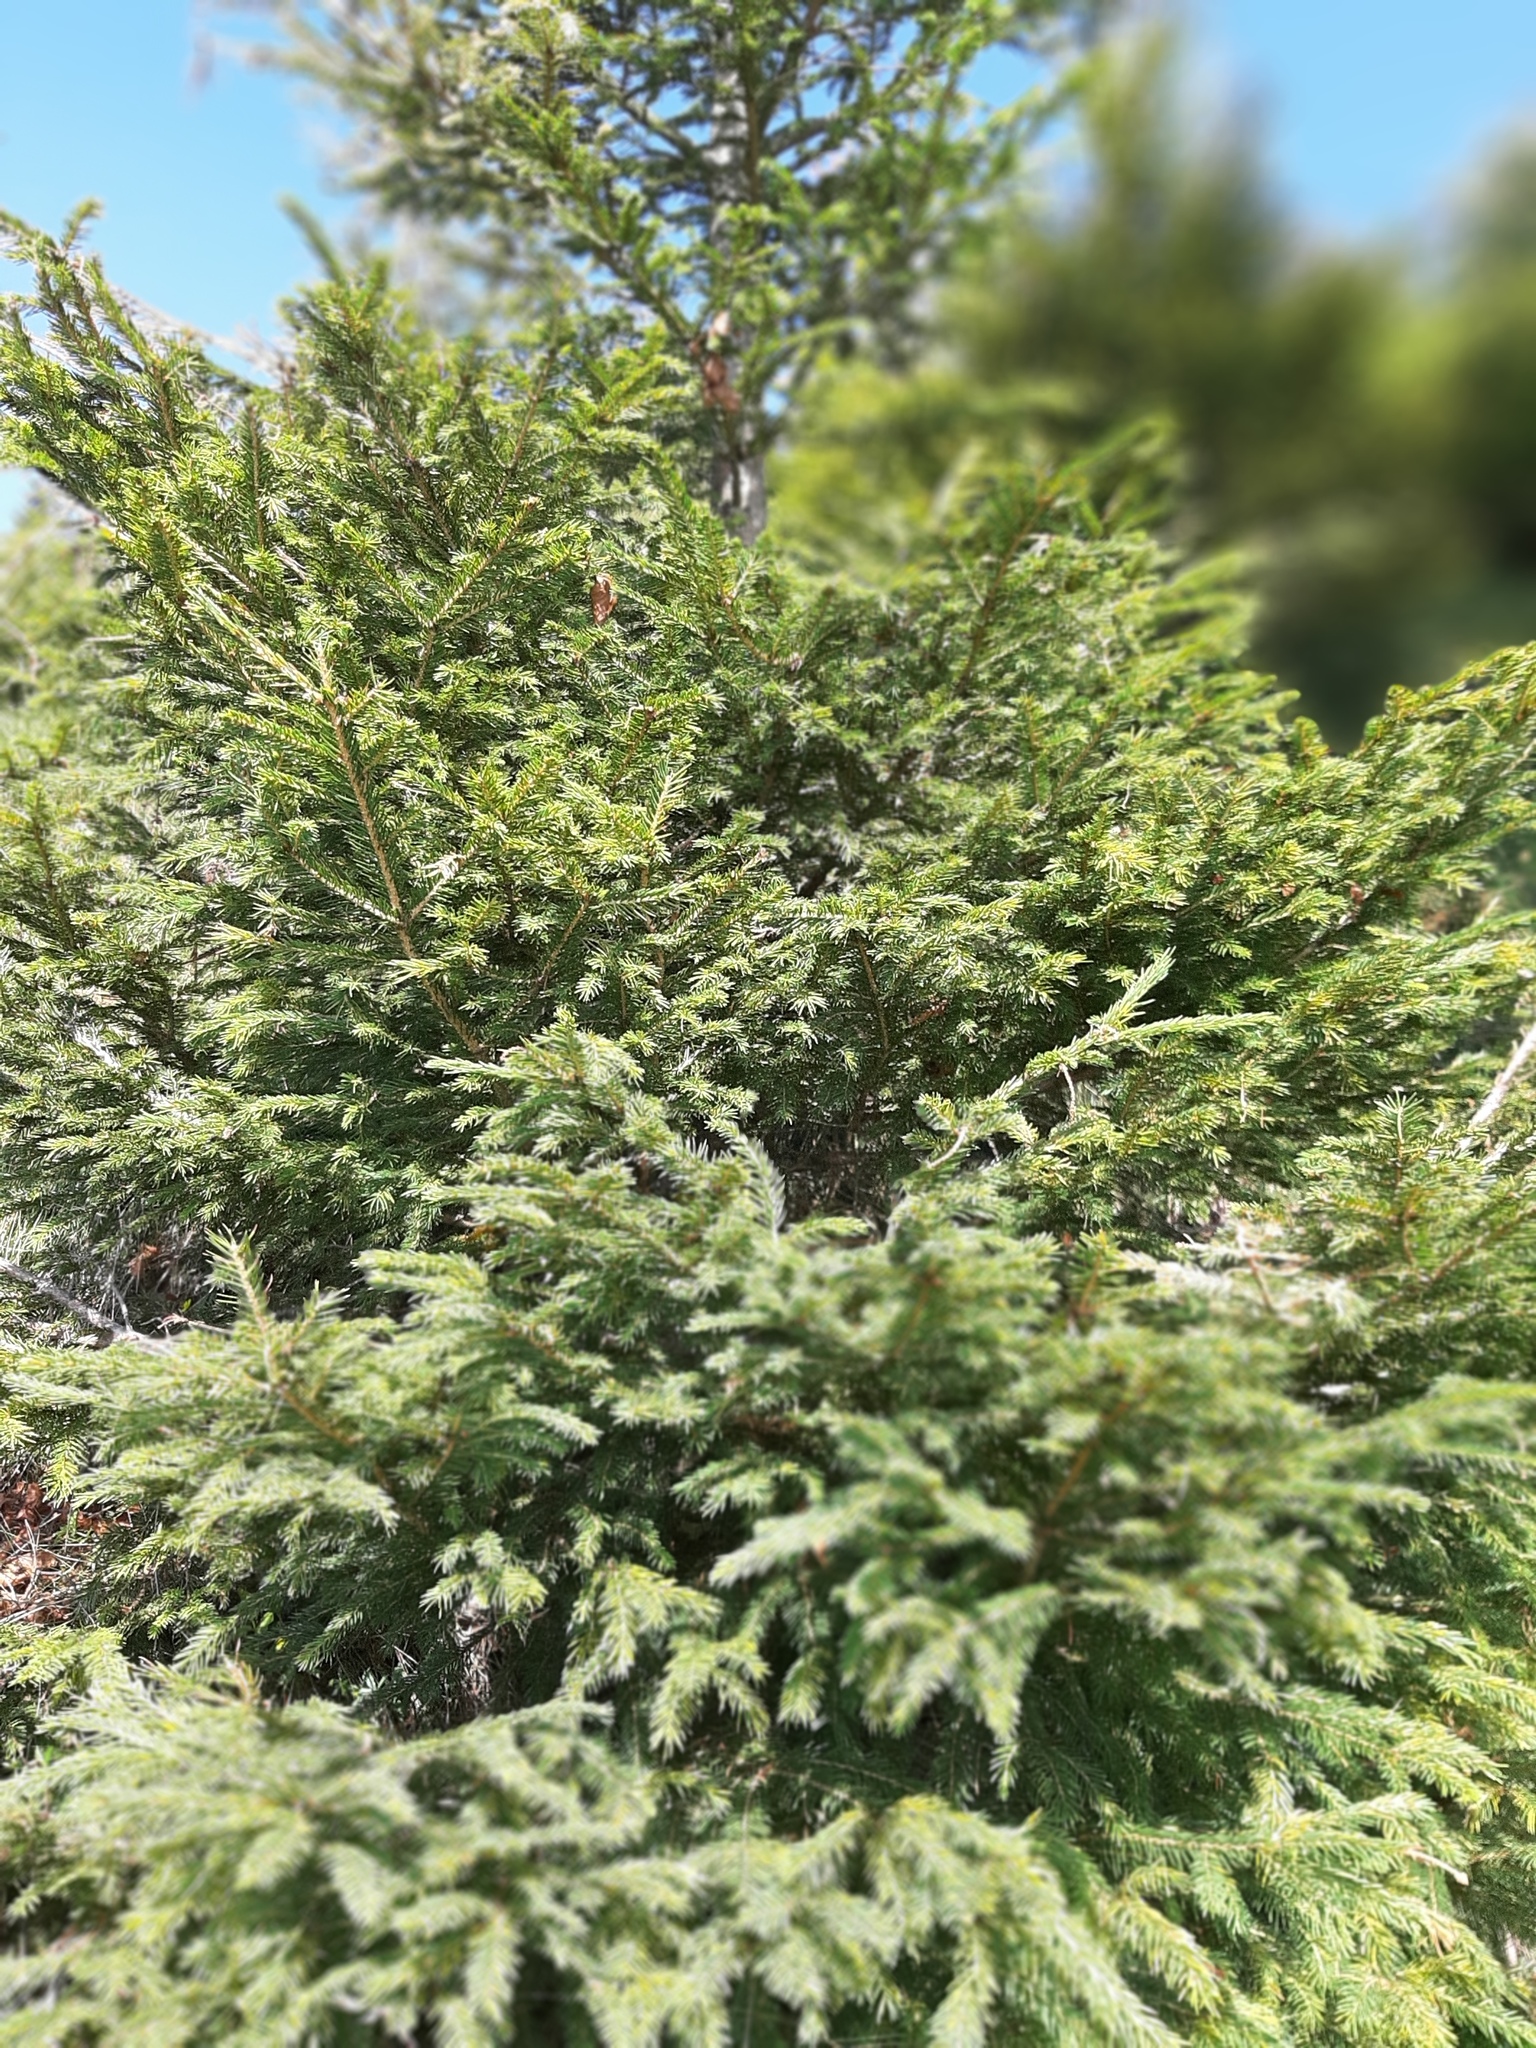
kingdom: Plantae
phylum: Tracheophyta
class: Pinopsida
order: Pinales
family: Pinaceae
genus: Picea
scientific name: Picea abies
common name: Norway spruce
